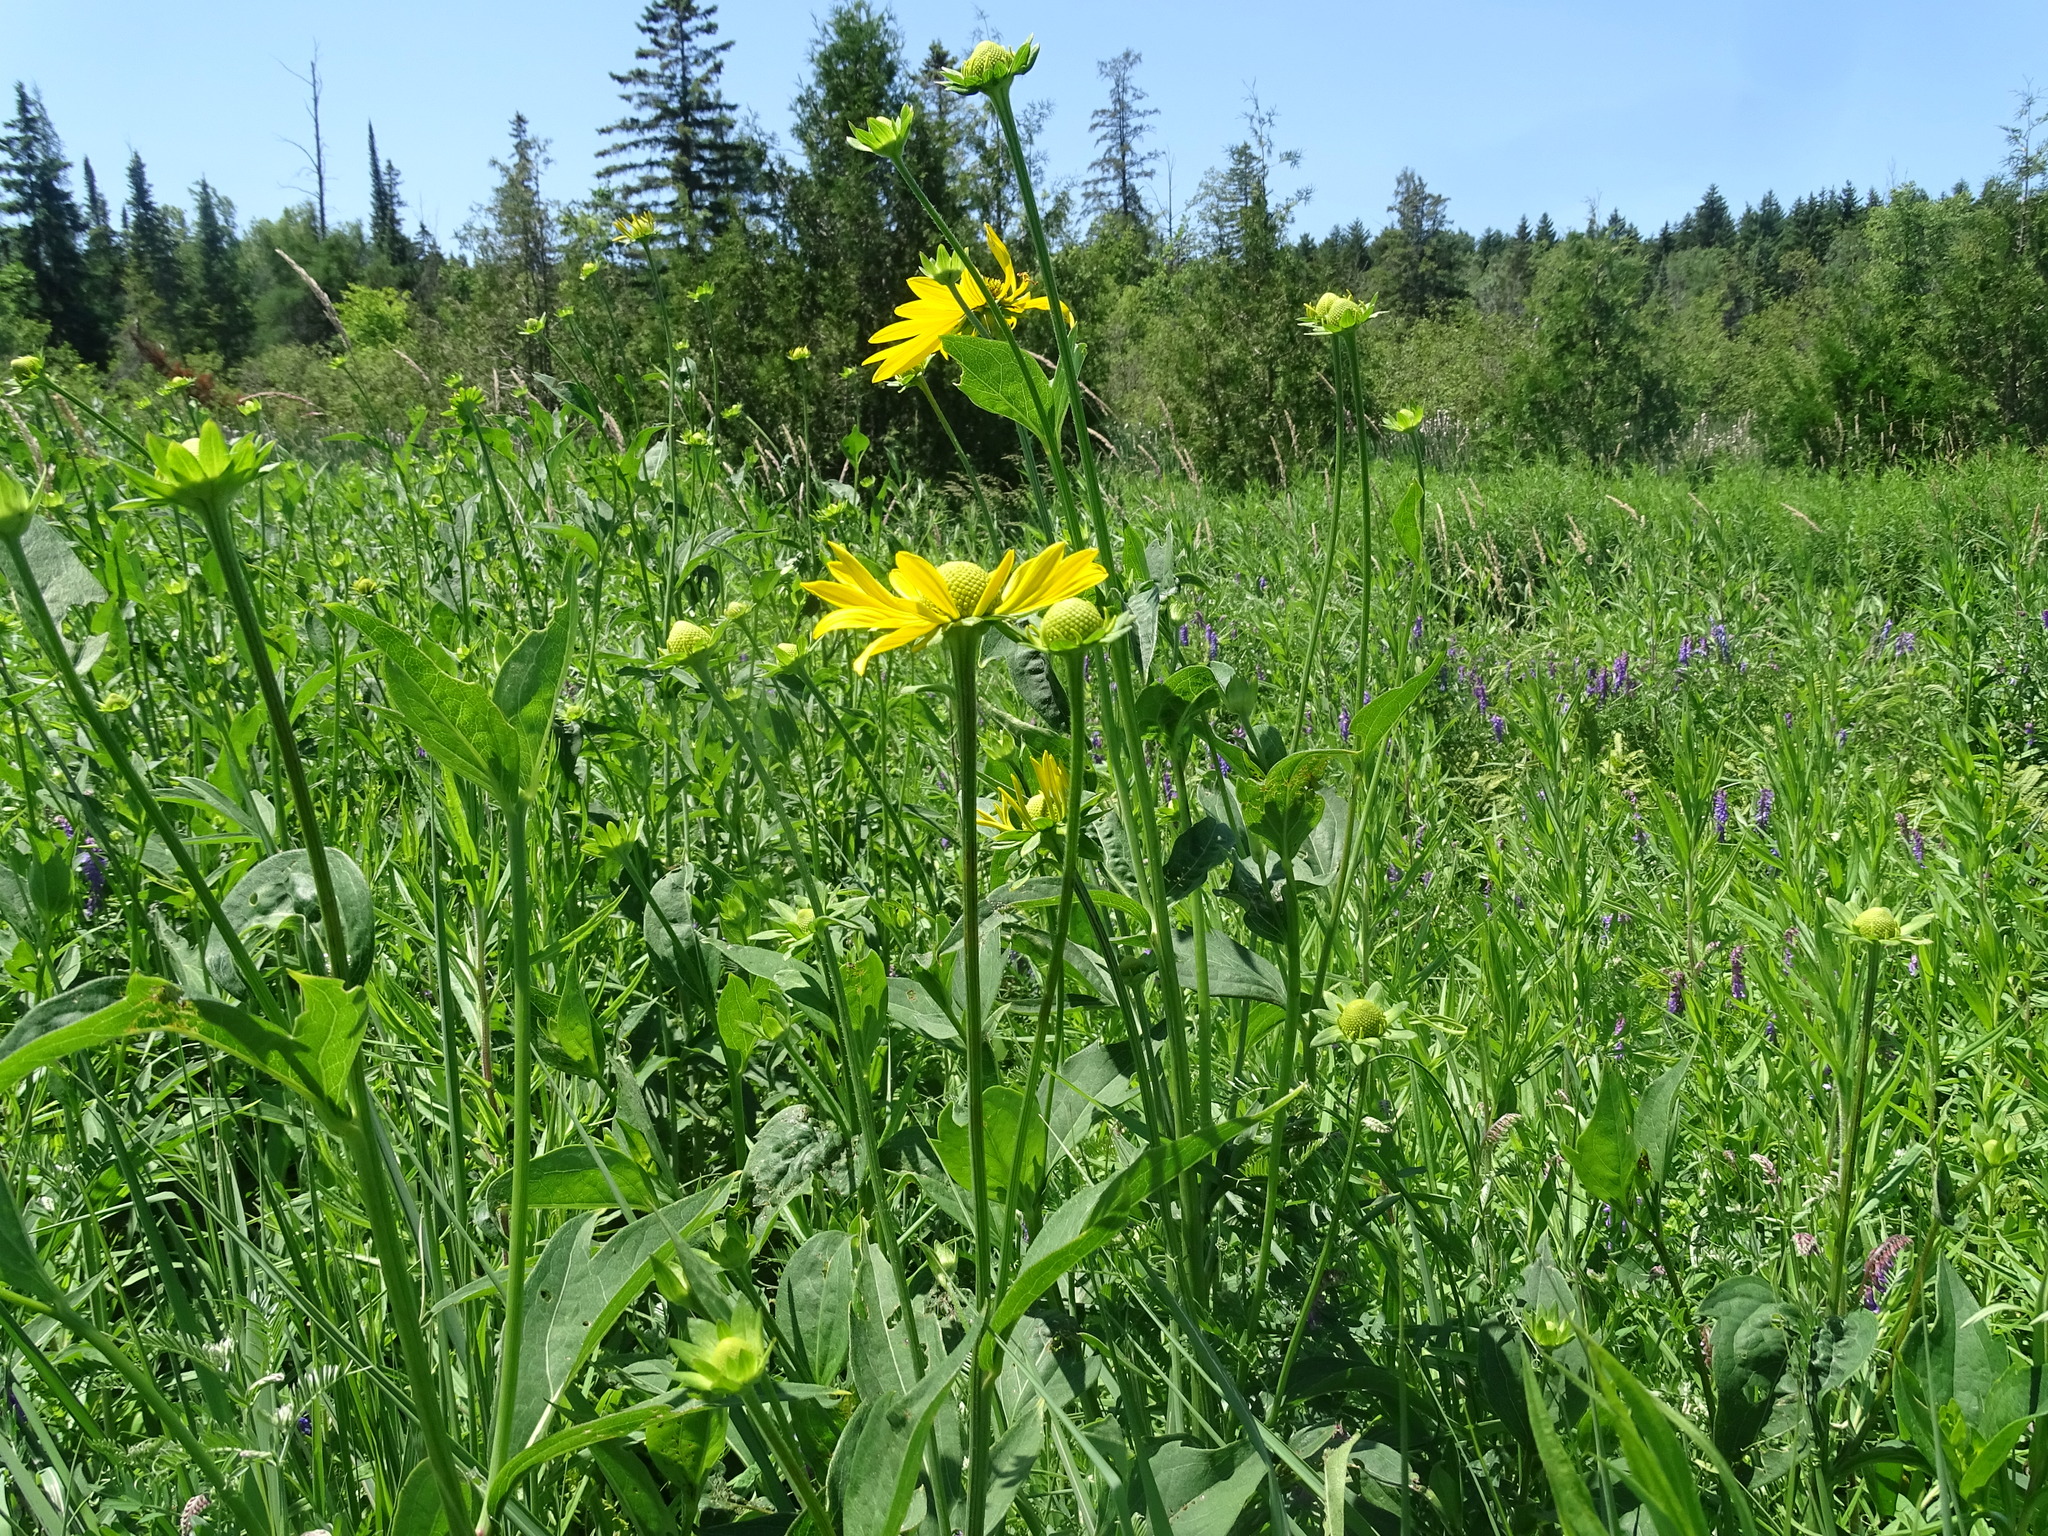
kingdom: Plantae
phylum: Tracheophyta
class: Magnoliopsida
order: Asterales
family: Asteraceae
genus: Rudbeckia
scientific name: Rudbeckia laciniata
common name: Coneflower
